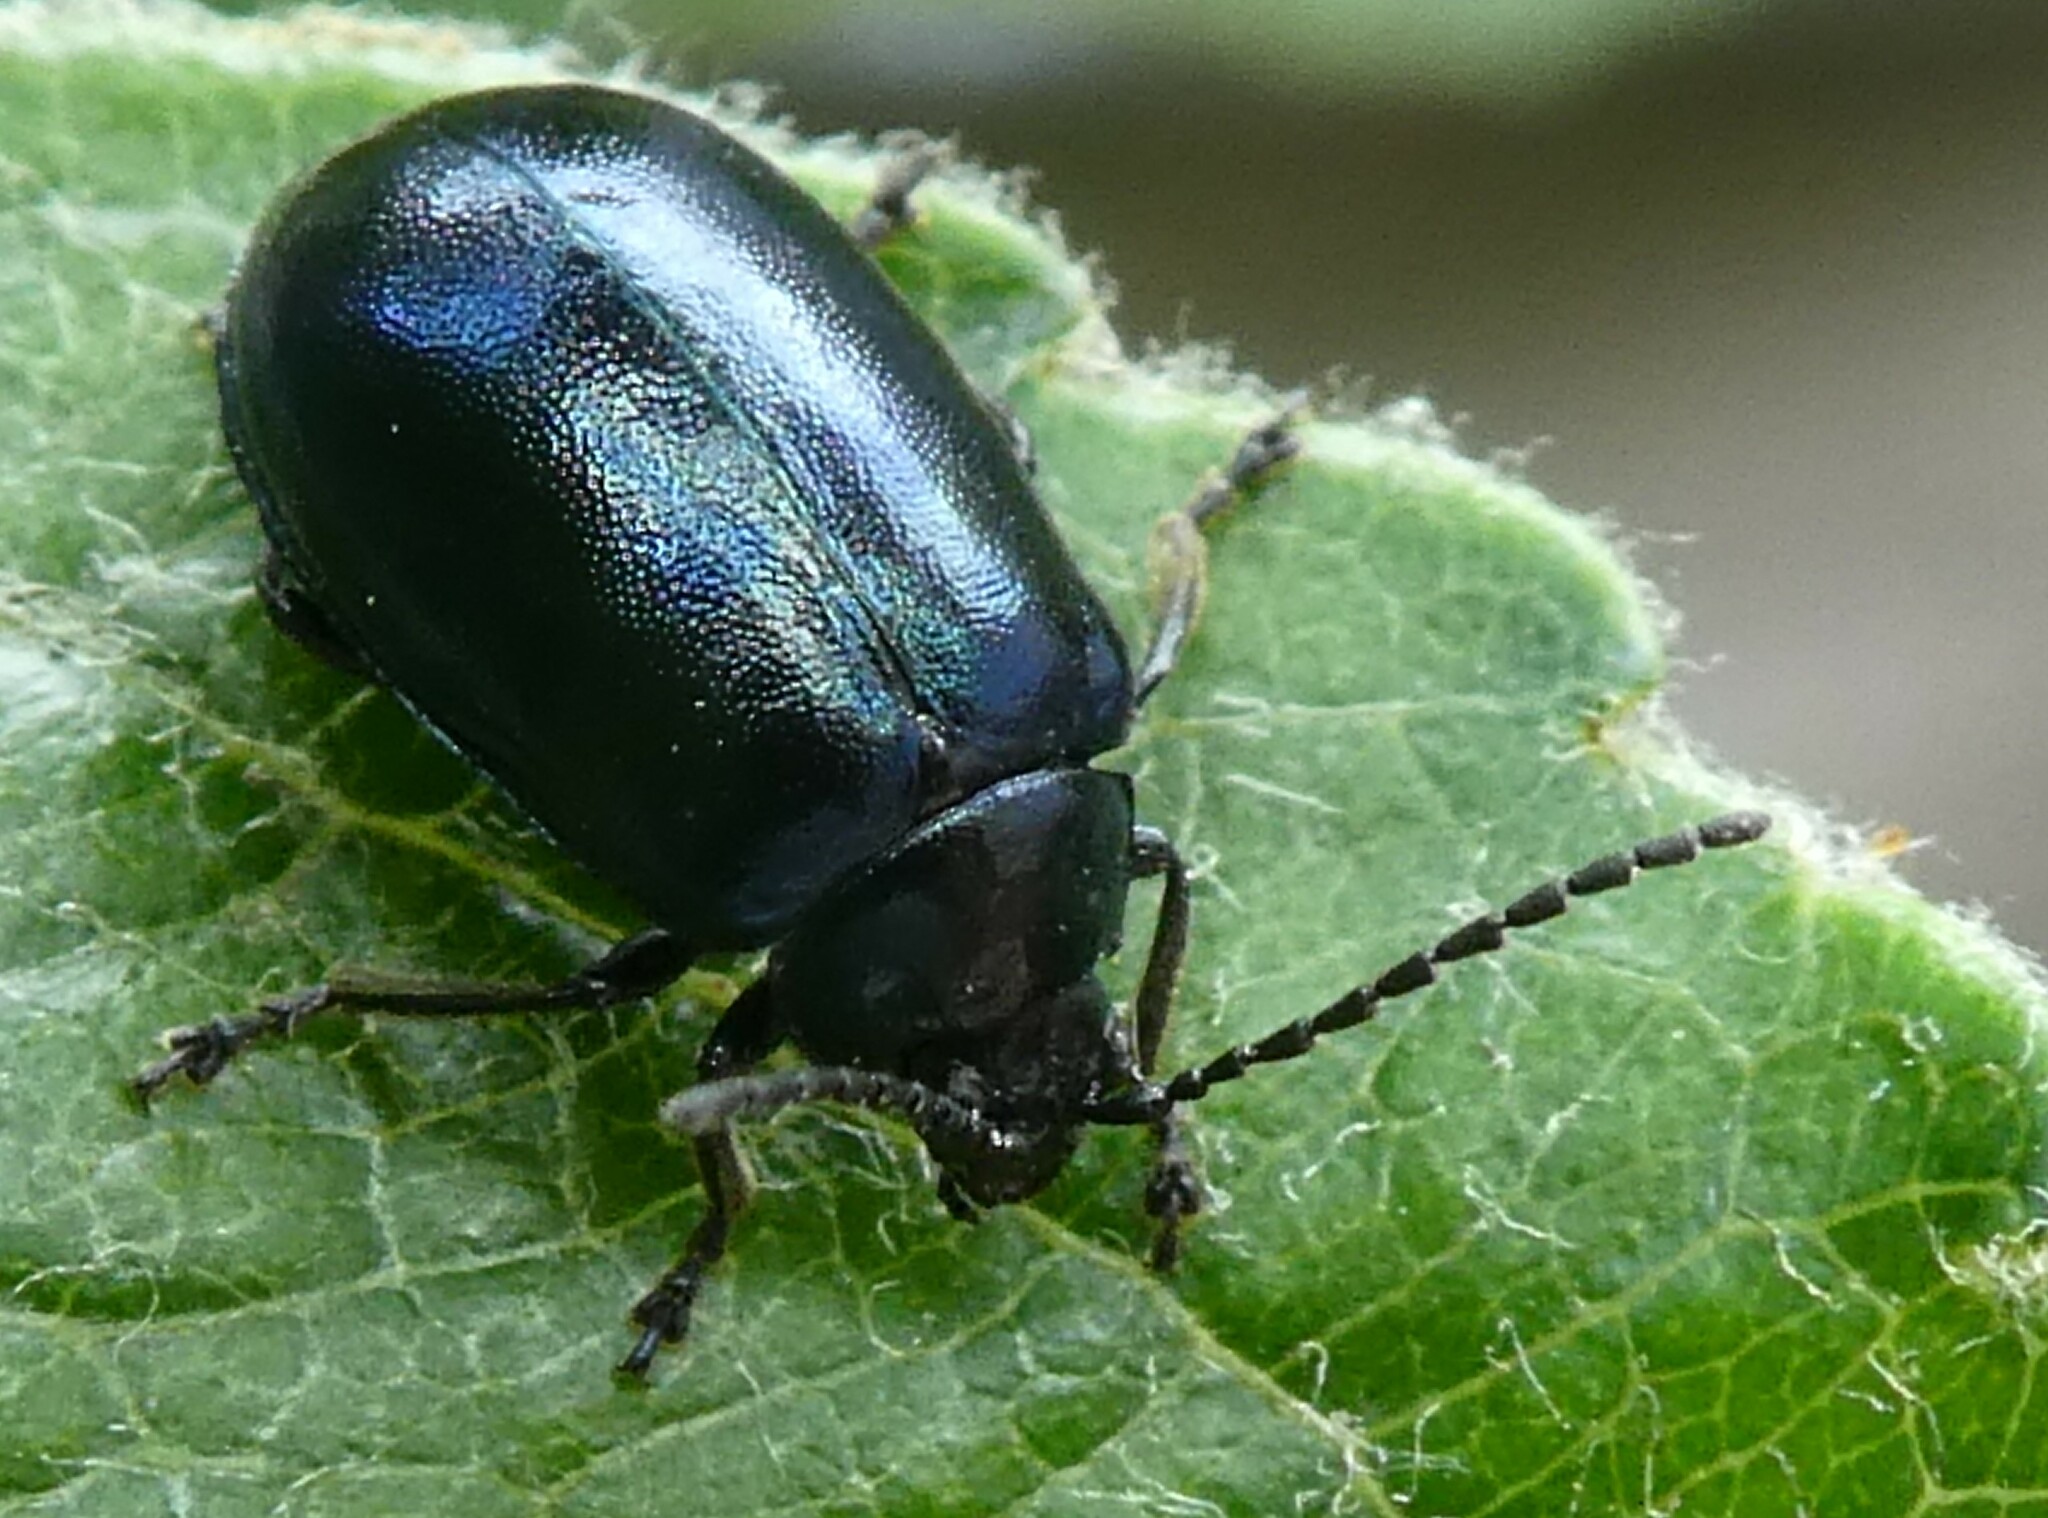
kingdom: Animalia
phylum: Arthropoda
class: Insecta
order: Coleoptera
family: Chrysomelidae
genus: Agelastica
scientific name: Agelastica alni
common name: Alder leaf beetle
